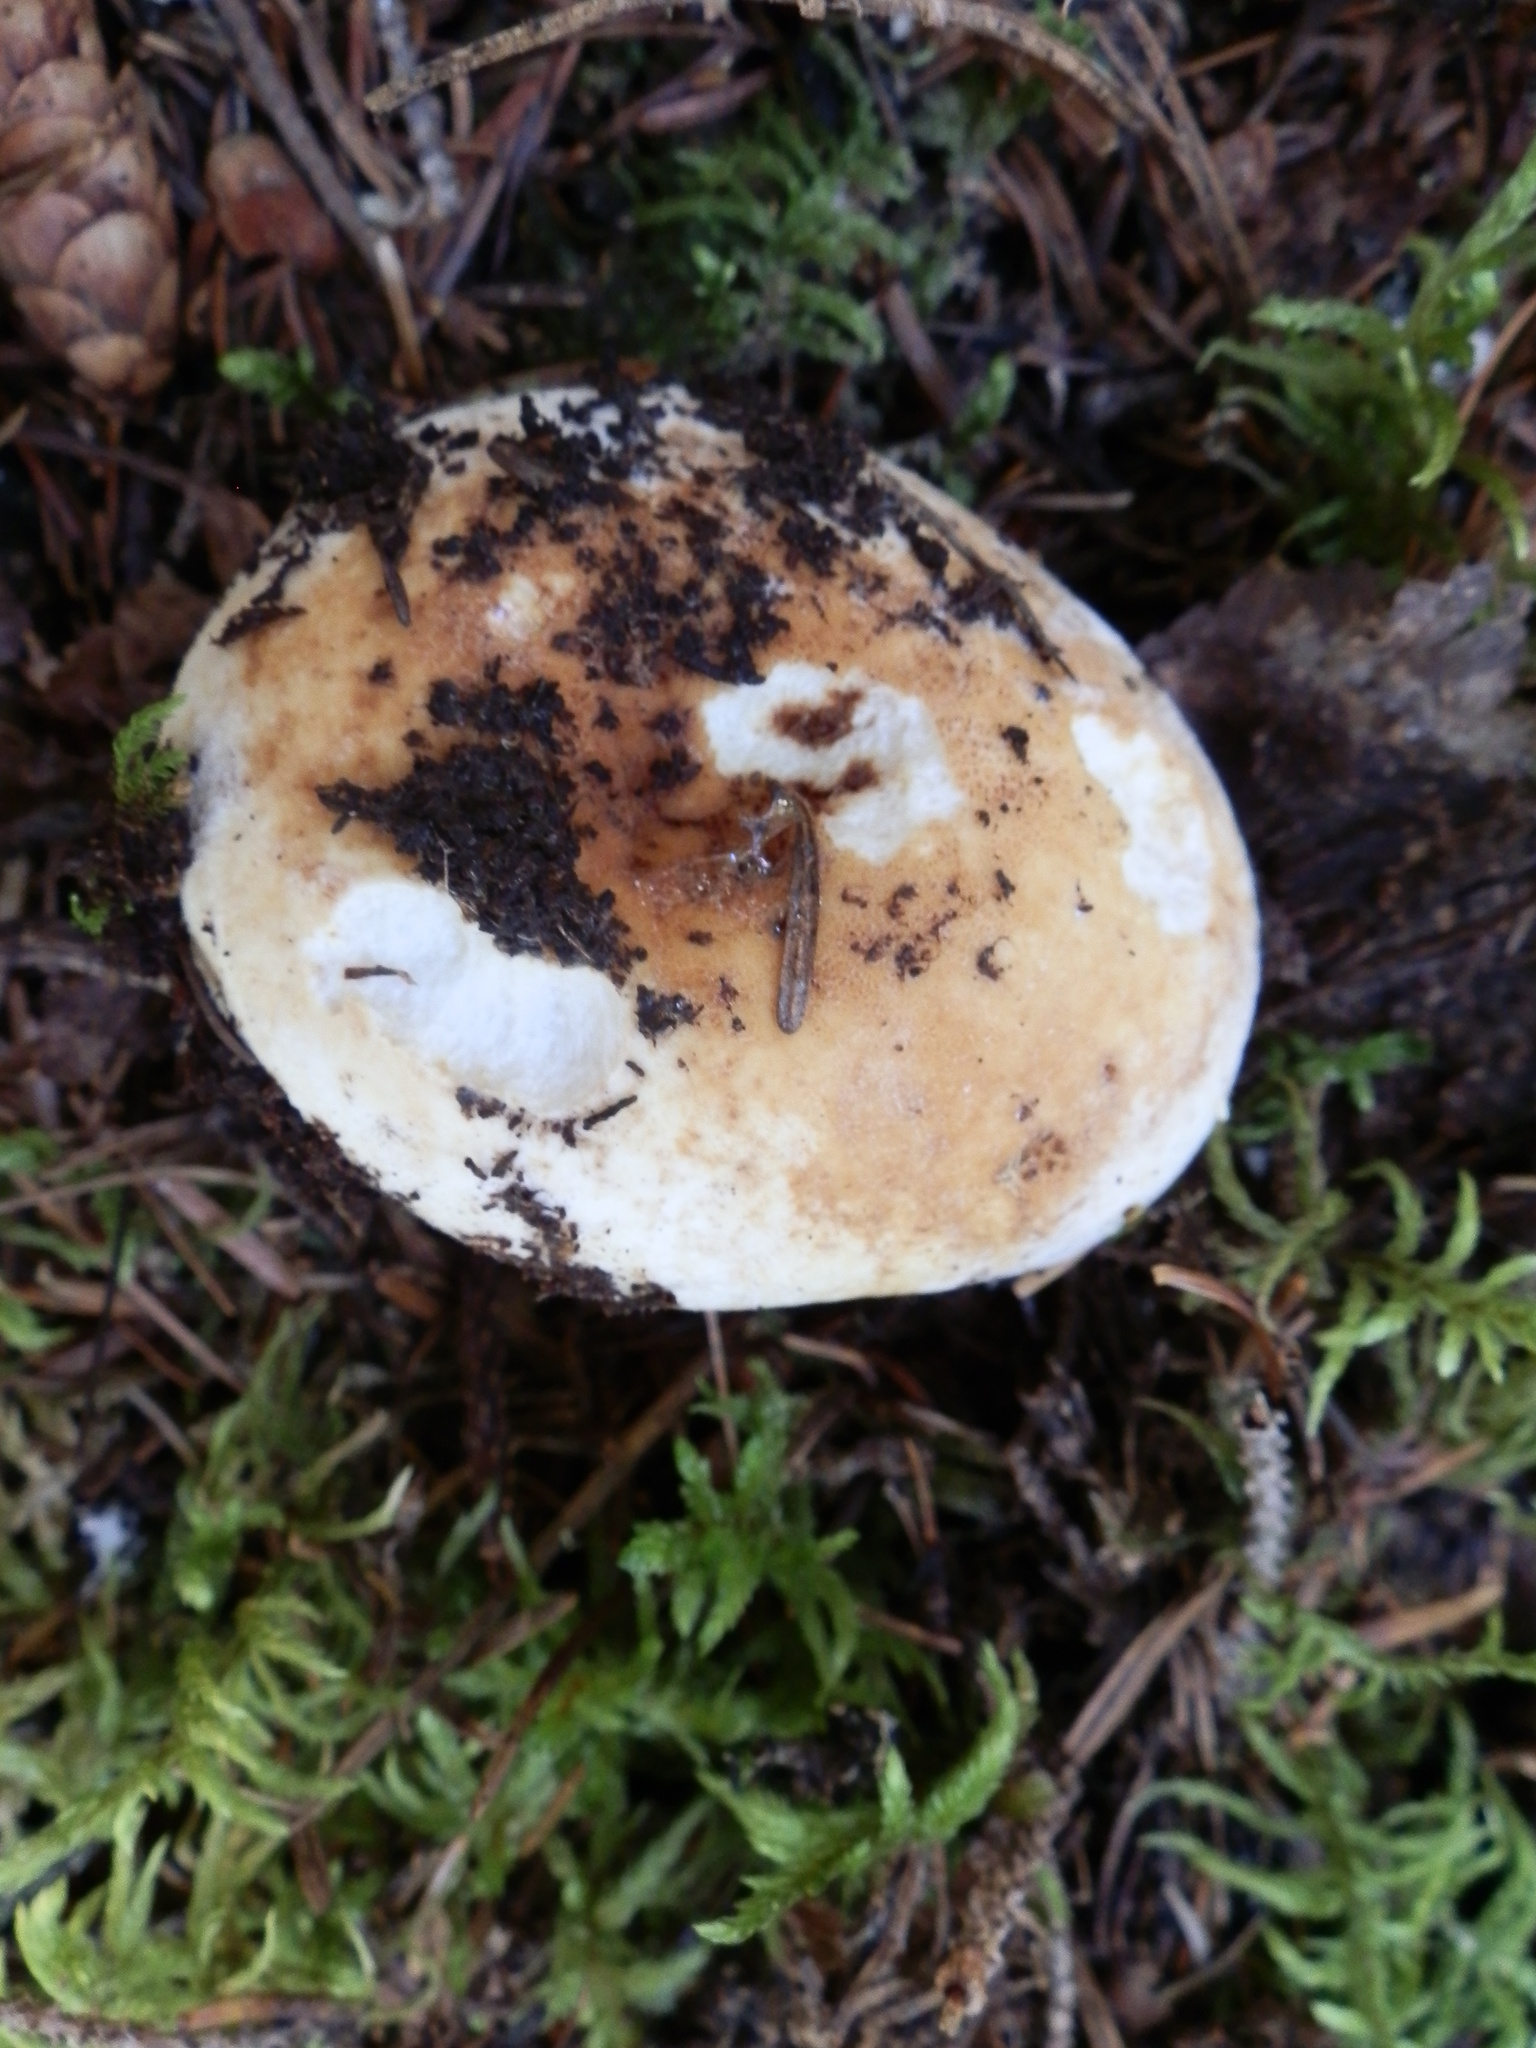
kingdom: Fungi
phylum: Basidiomycota
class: Agaricomycetes
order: Russulales
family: Russulaceae
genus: Lactifluus
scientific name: Lactifluus subvellereus
